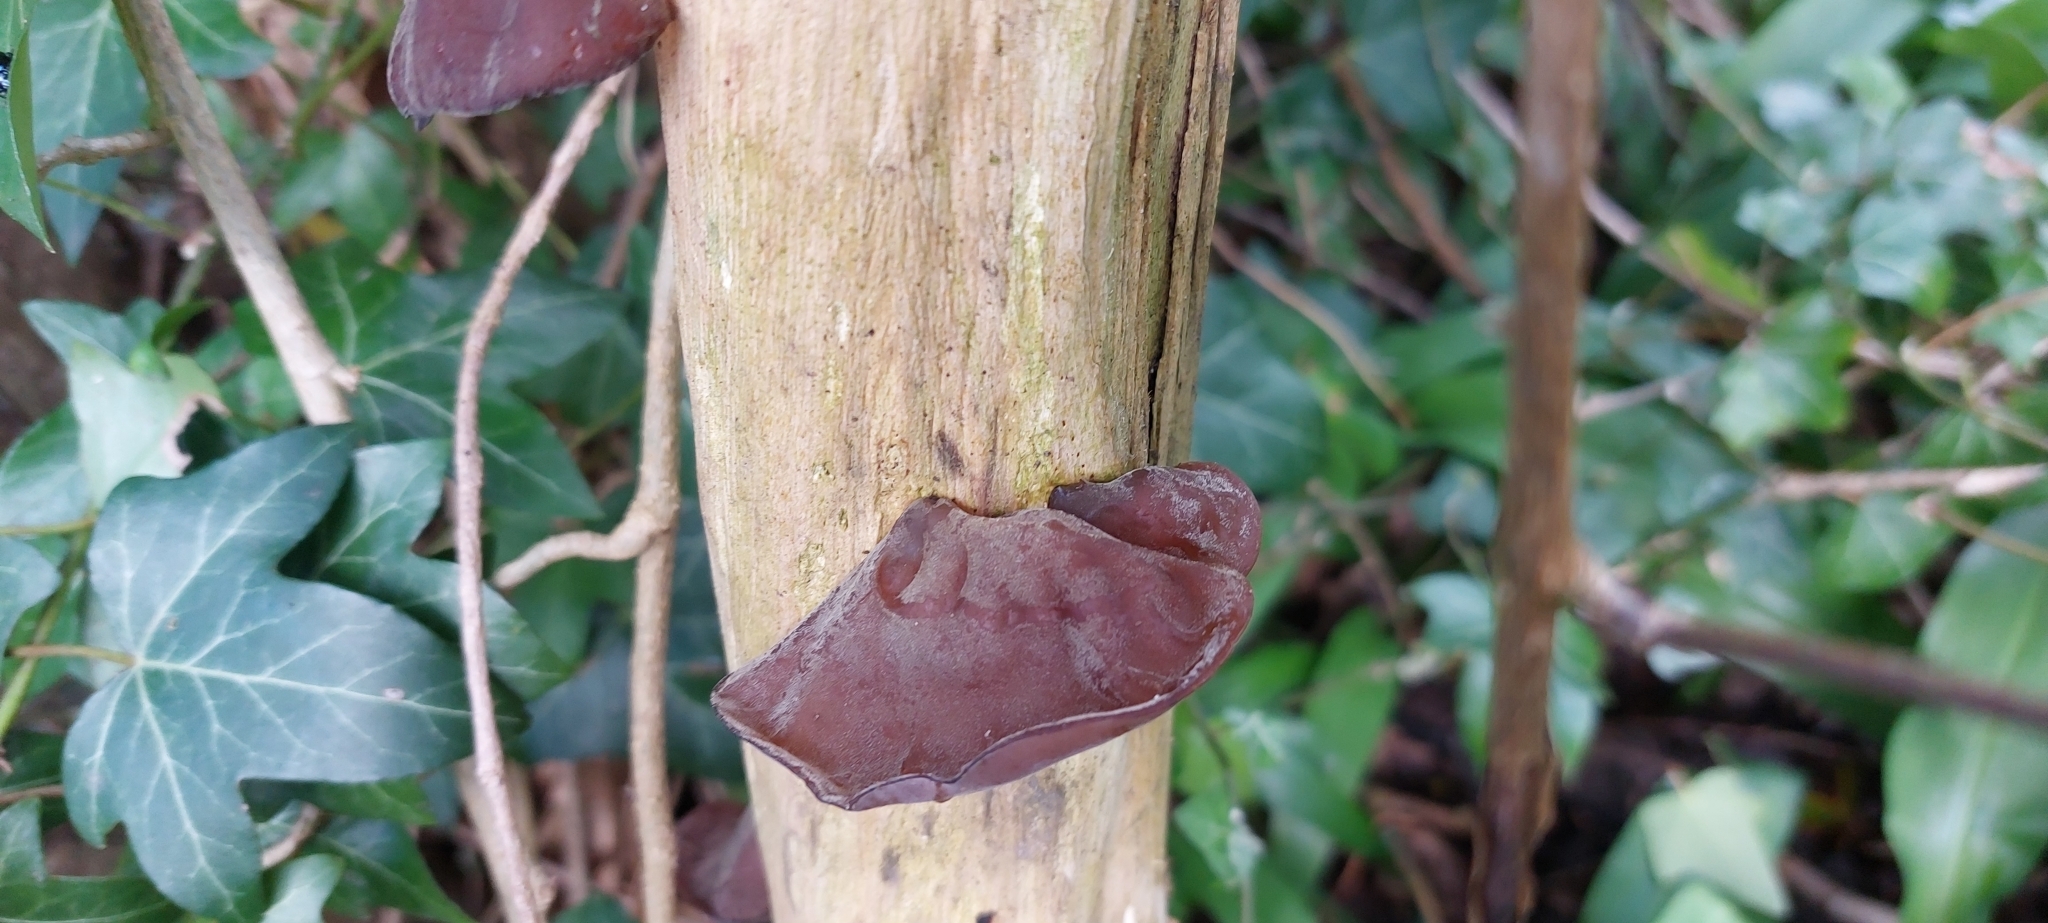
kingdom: Fungi
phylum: Basidiomycota
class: Agaricomycetes
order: Auriculariales
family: Auriculariaceae
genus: Auricularia
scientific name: Auricularia auricula-judae
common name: Jelly ear
